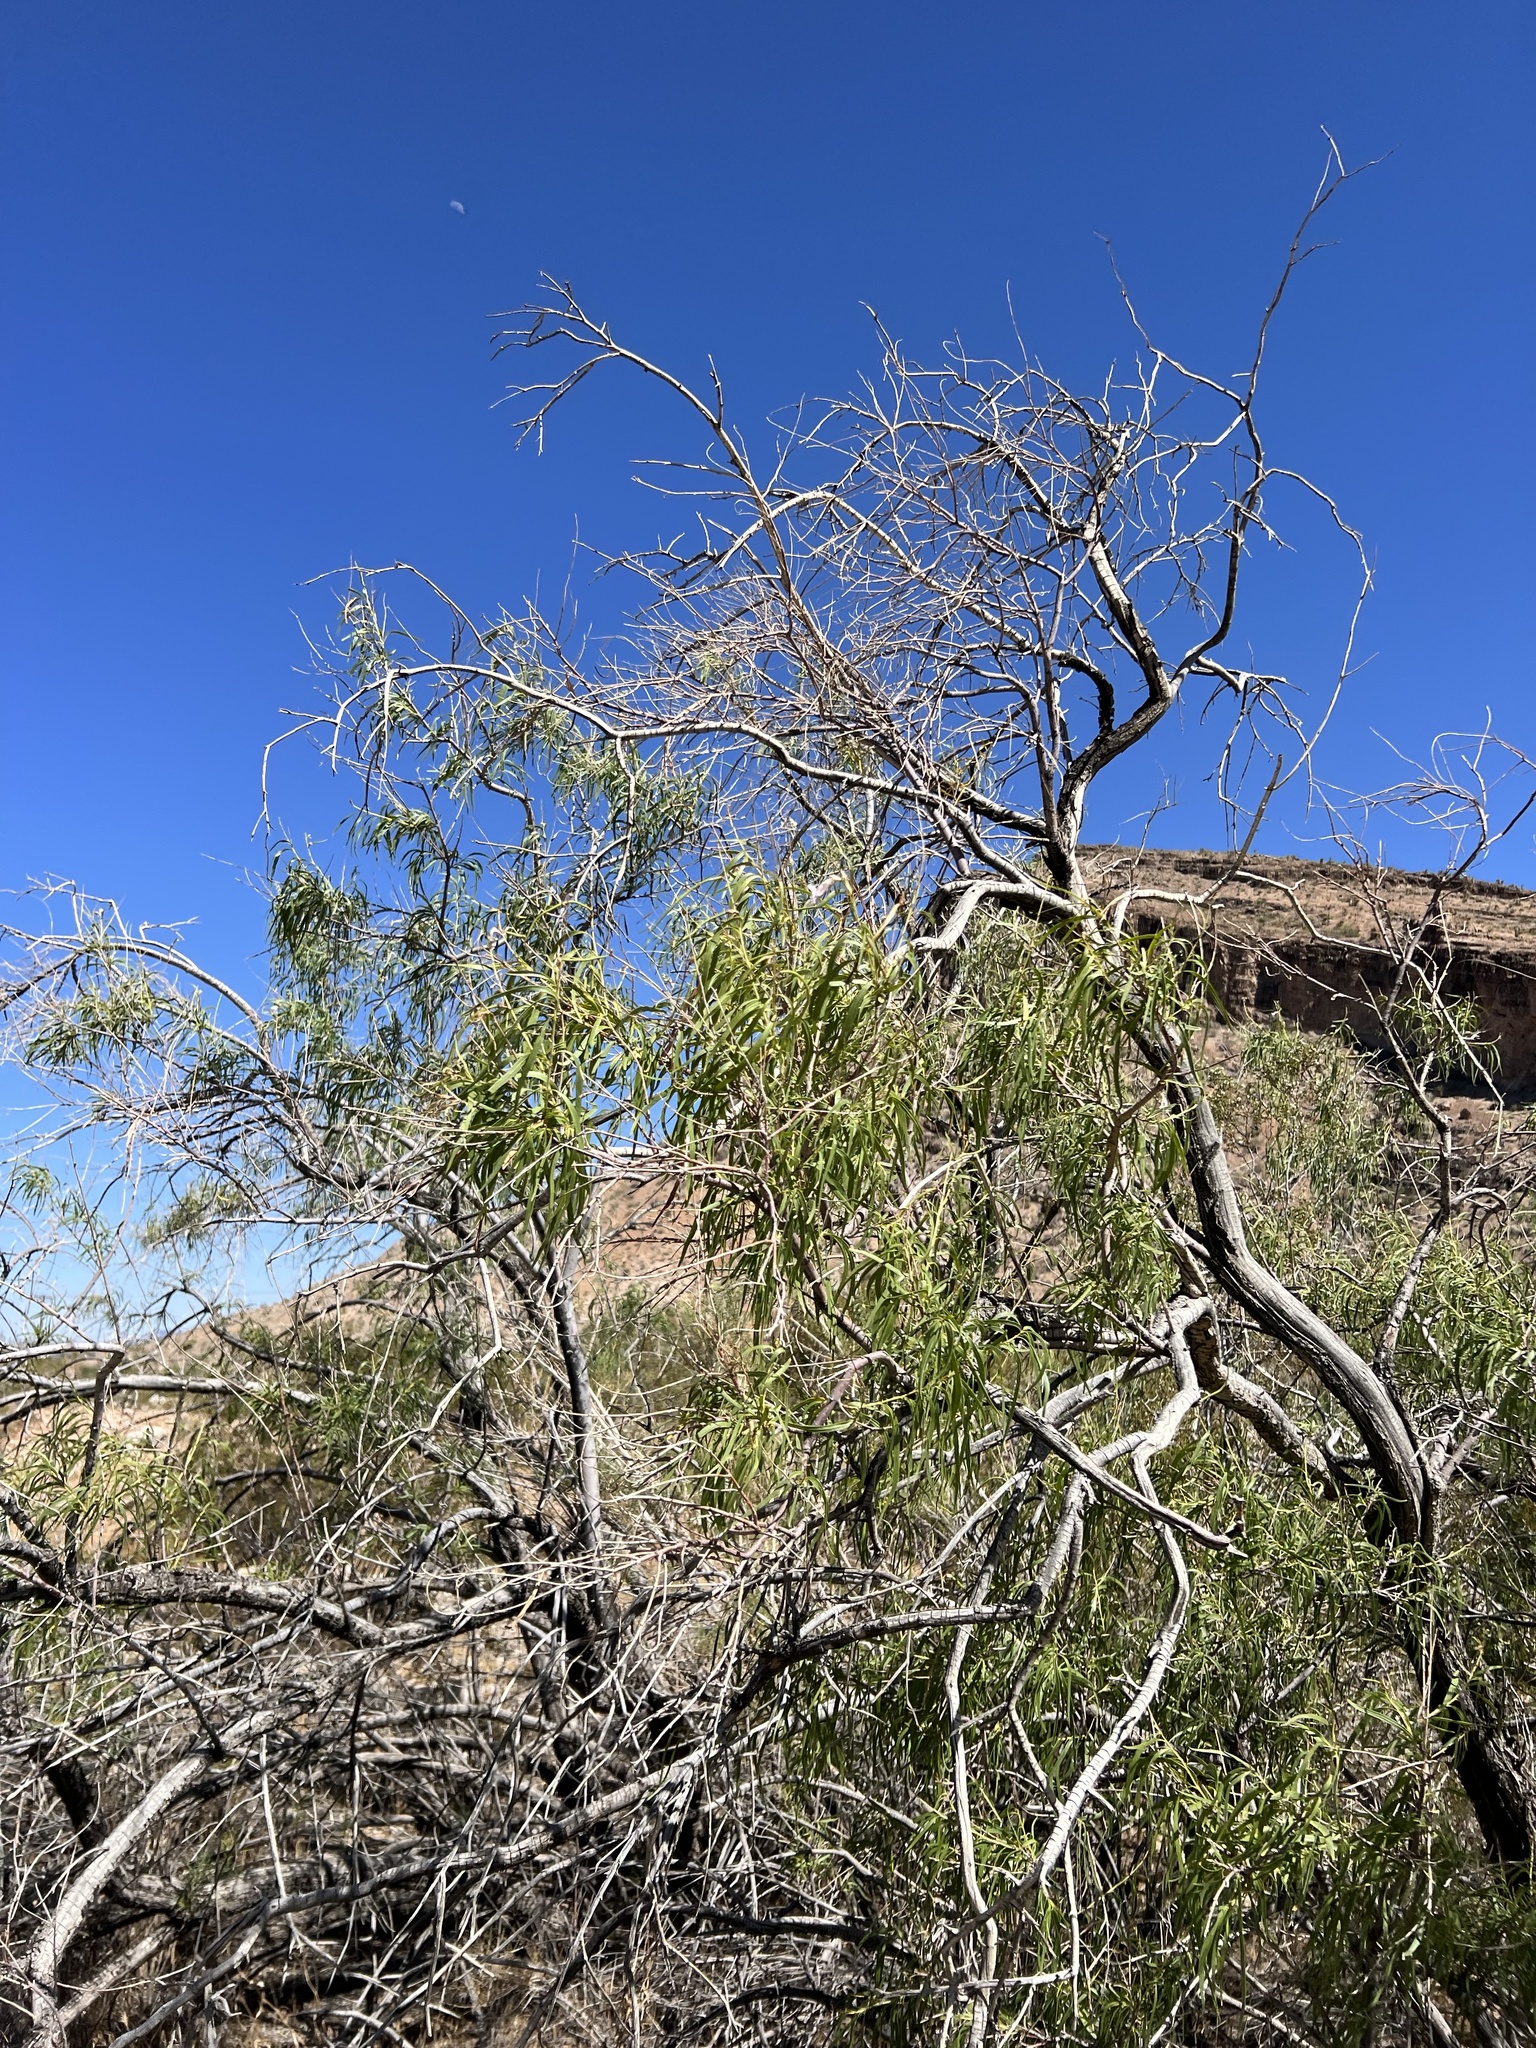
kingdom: Plantae
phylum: Tracheophyta
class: Magnoliopsida
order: Lamiales
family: Bignoniaceae
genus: Chilopsis
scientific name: Chilopsis linearis
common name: Desert-willow
